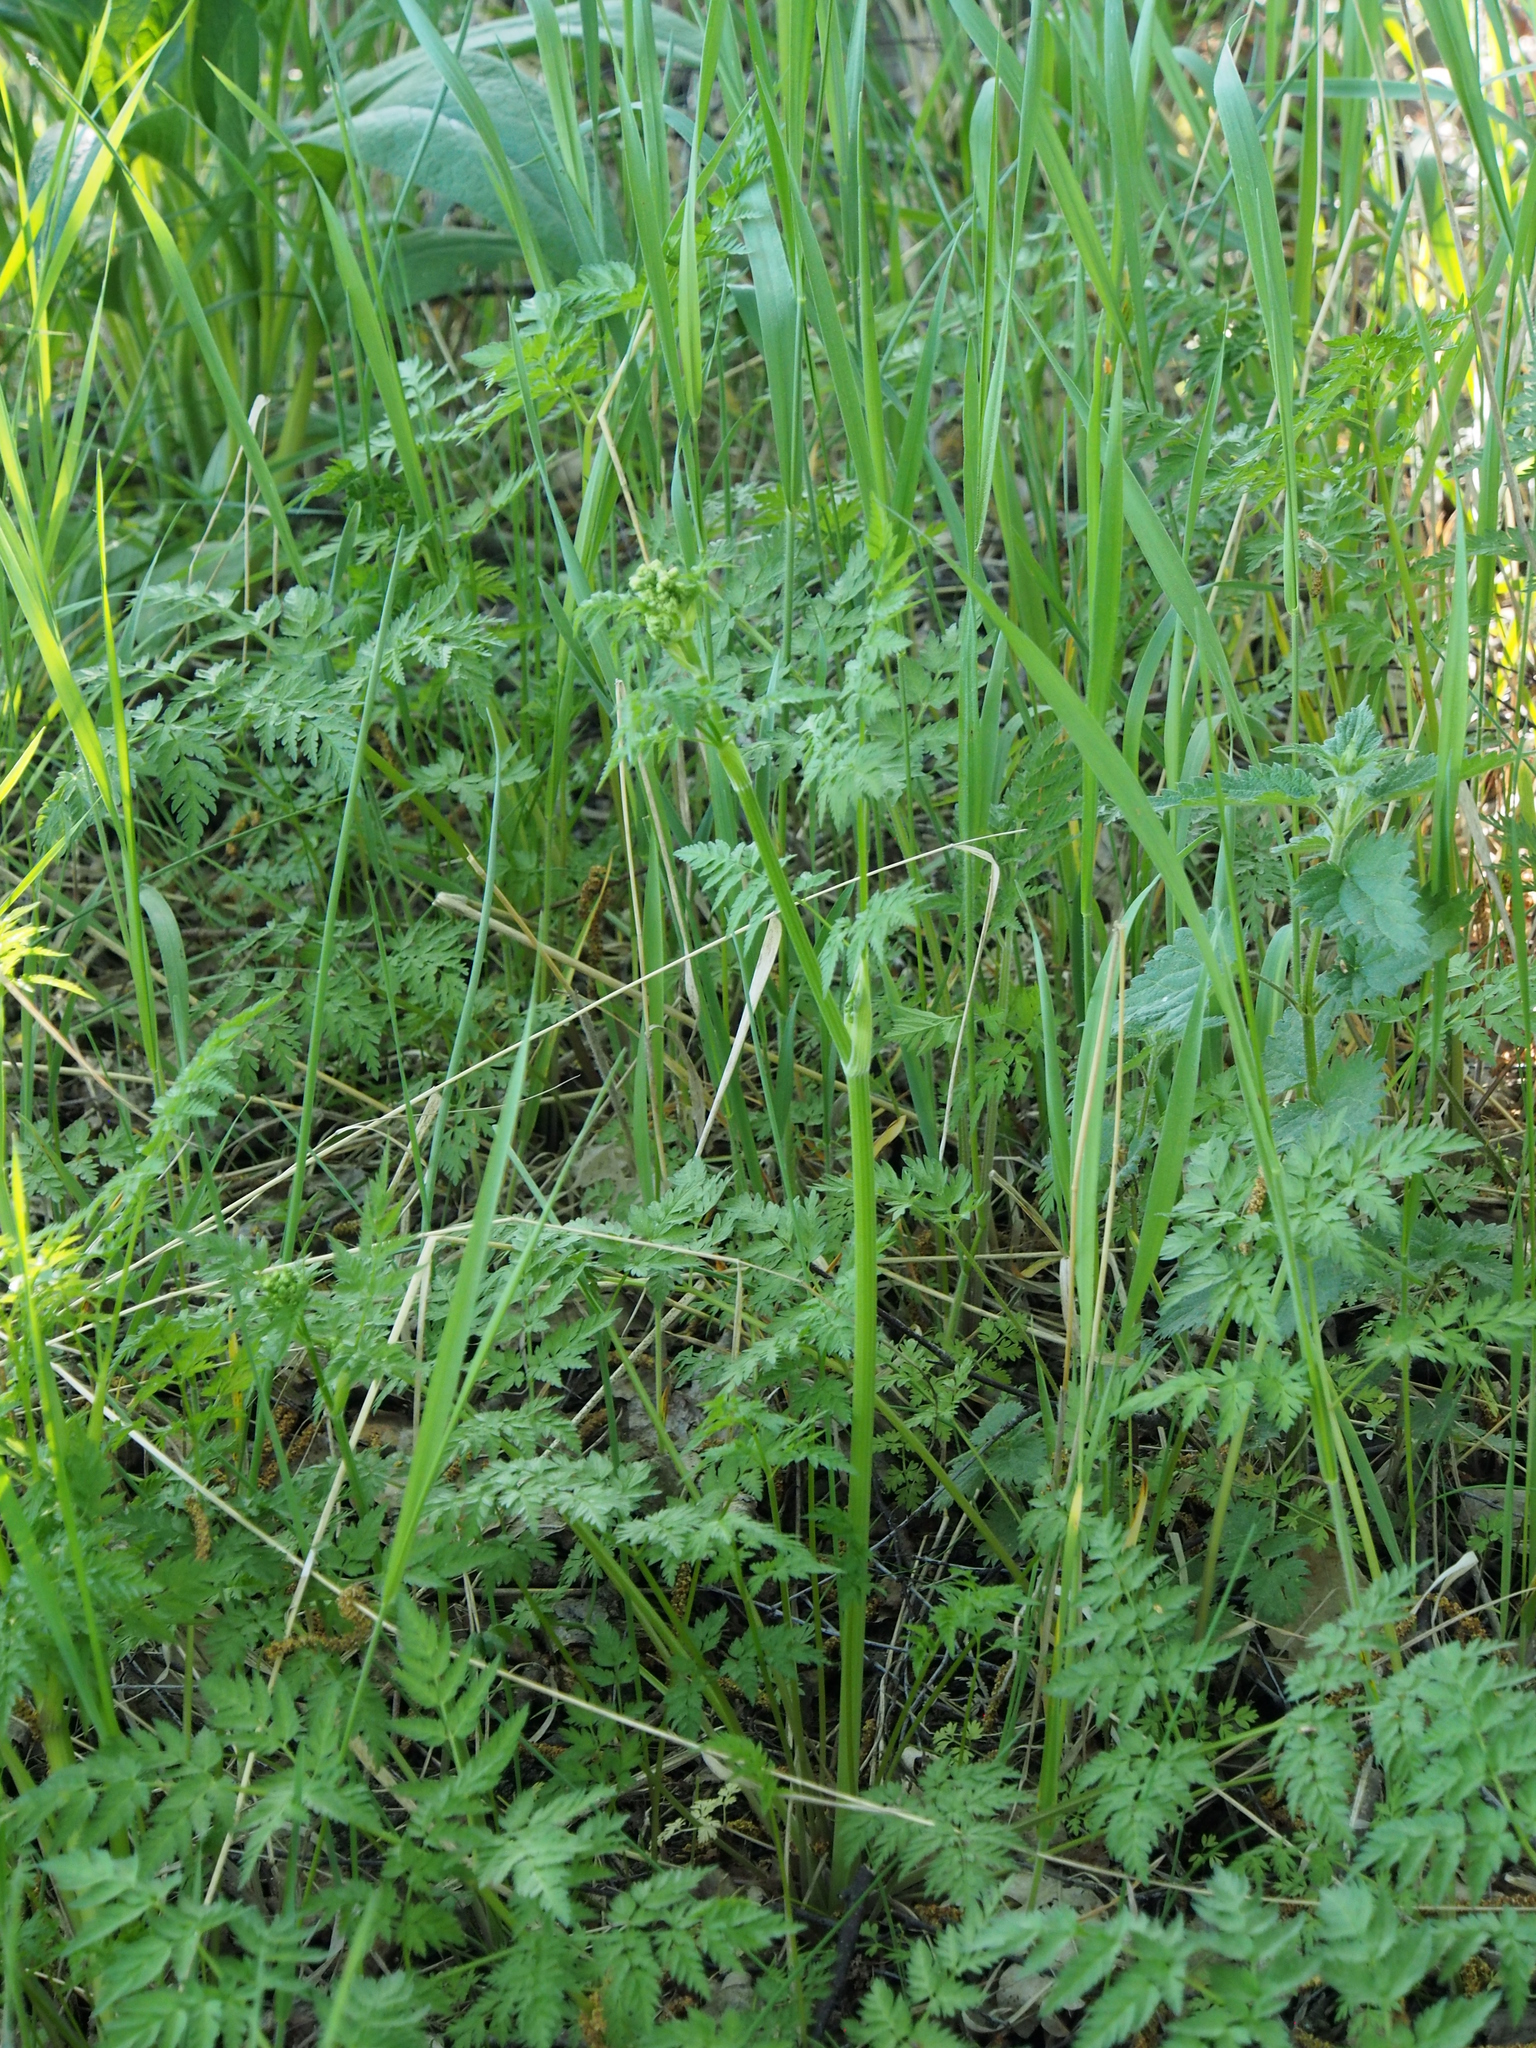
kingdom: Plantae
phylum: Tracheophyta
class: Magnoliopsida
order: Apiales
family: Apiaceae
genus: Anthriscus
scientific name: Anthriscus sylvestris
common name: Cow parsley
